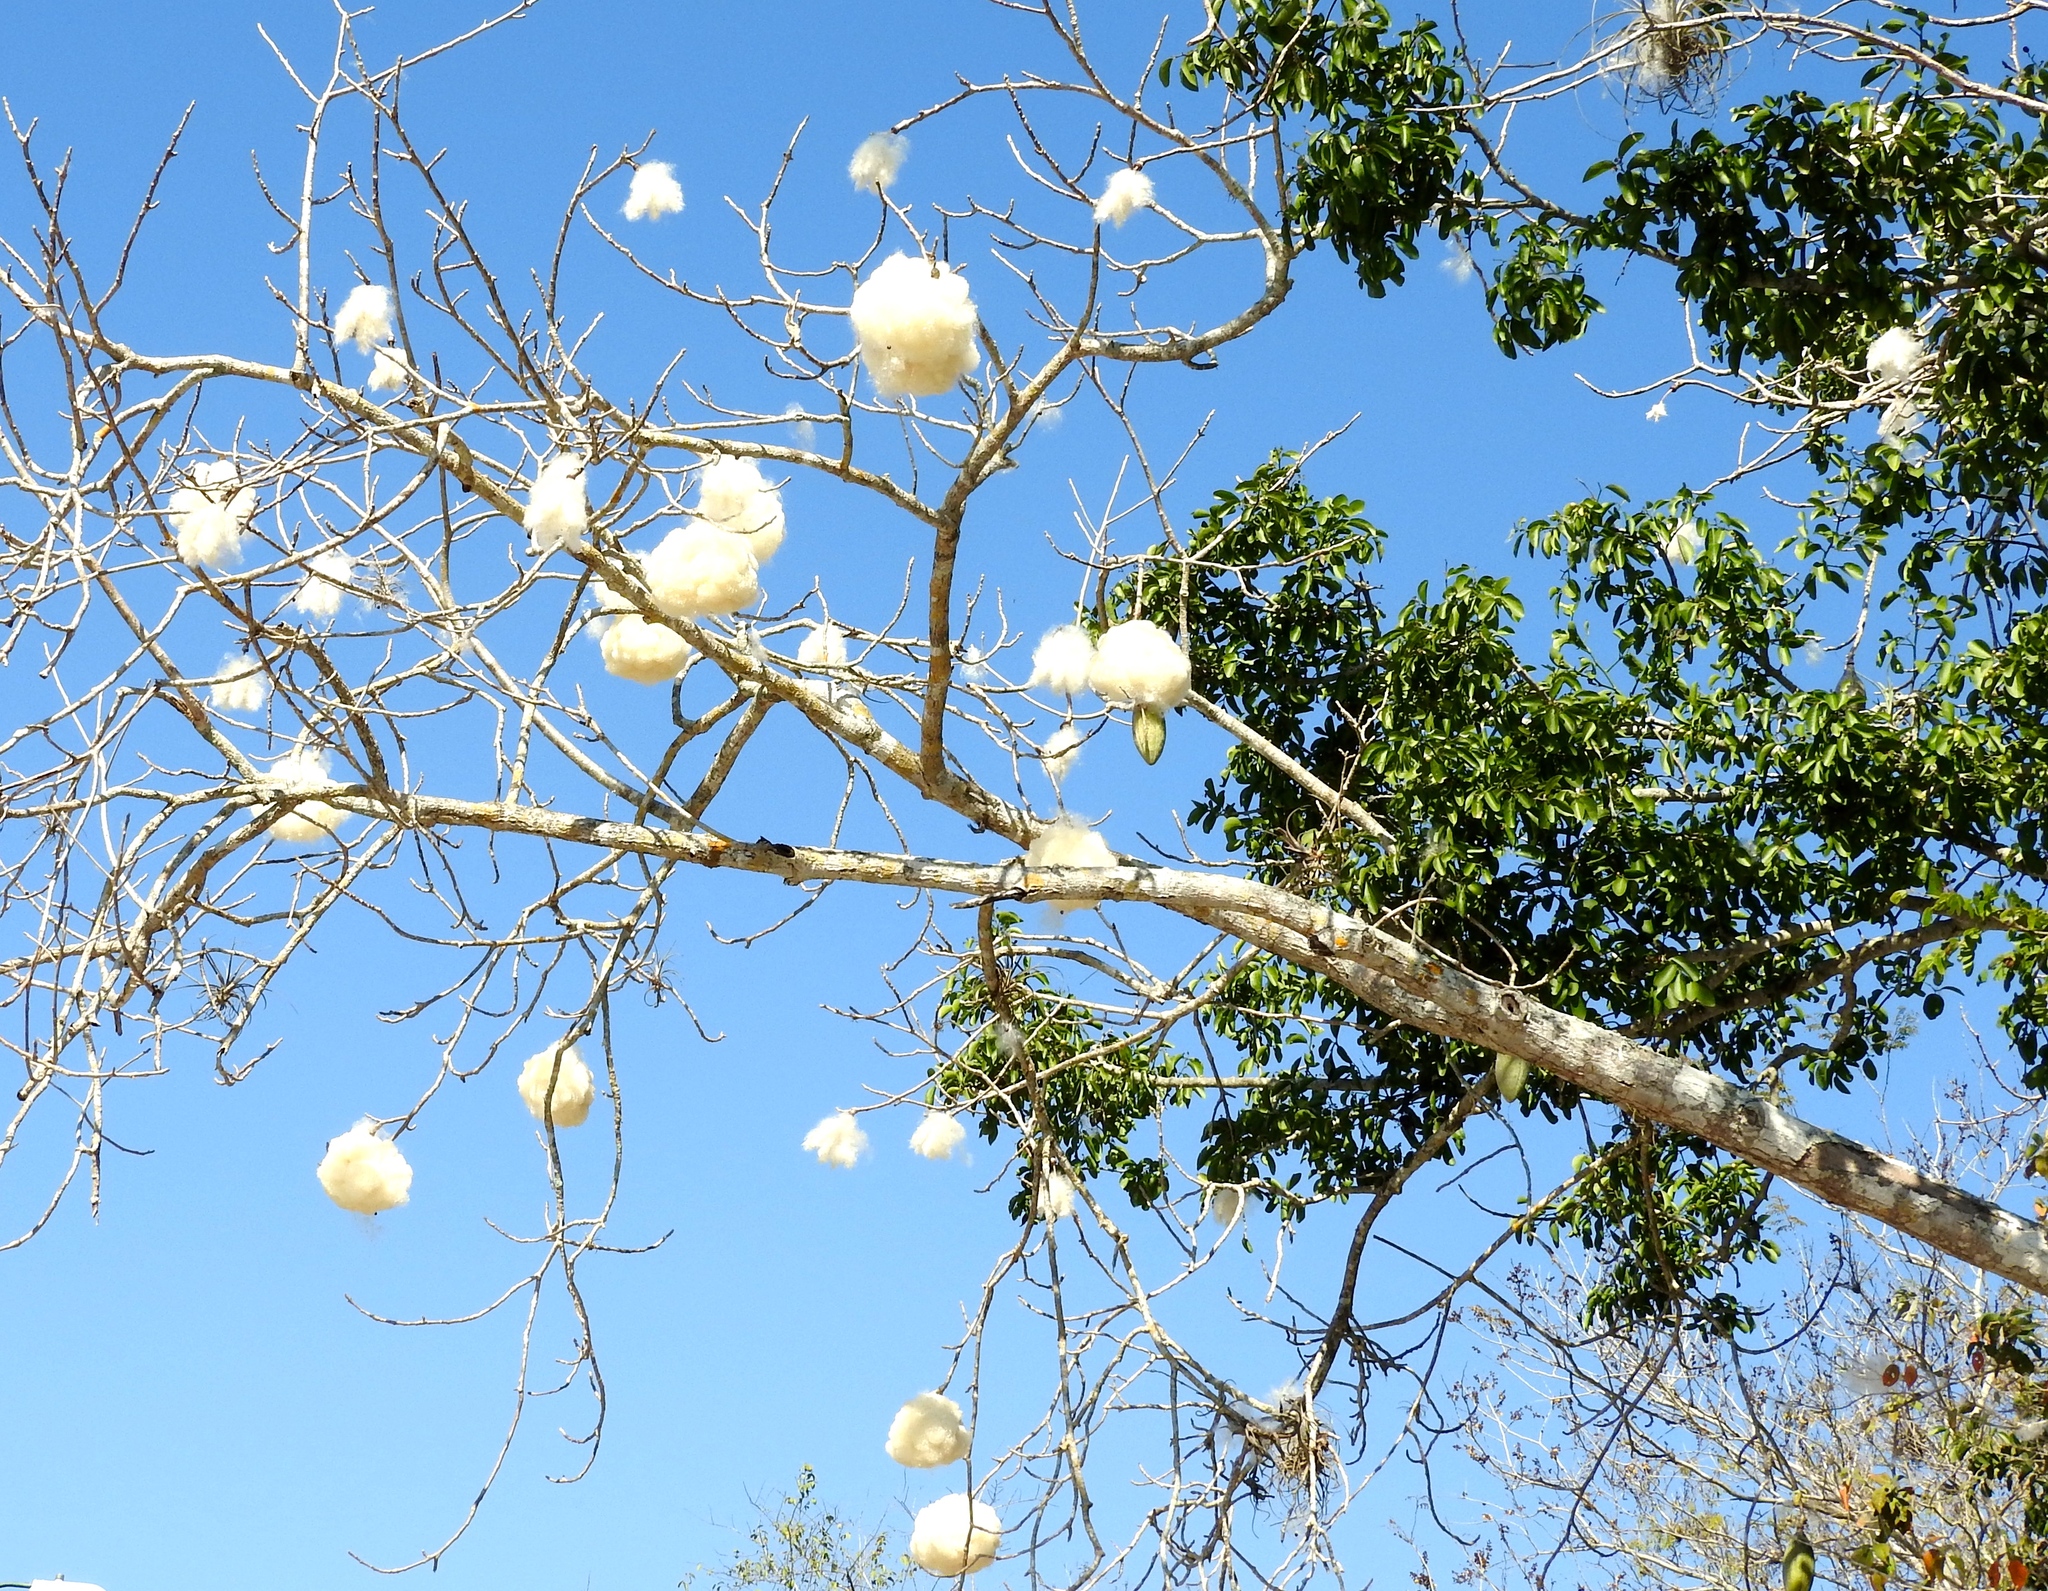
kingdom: Plantae
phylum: Tracheophyta
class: Magnoliopsida
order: Malvales
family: Malvaceae
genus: Ceiba
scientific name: Ceiba aesculifolia
